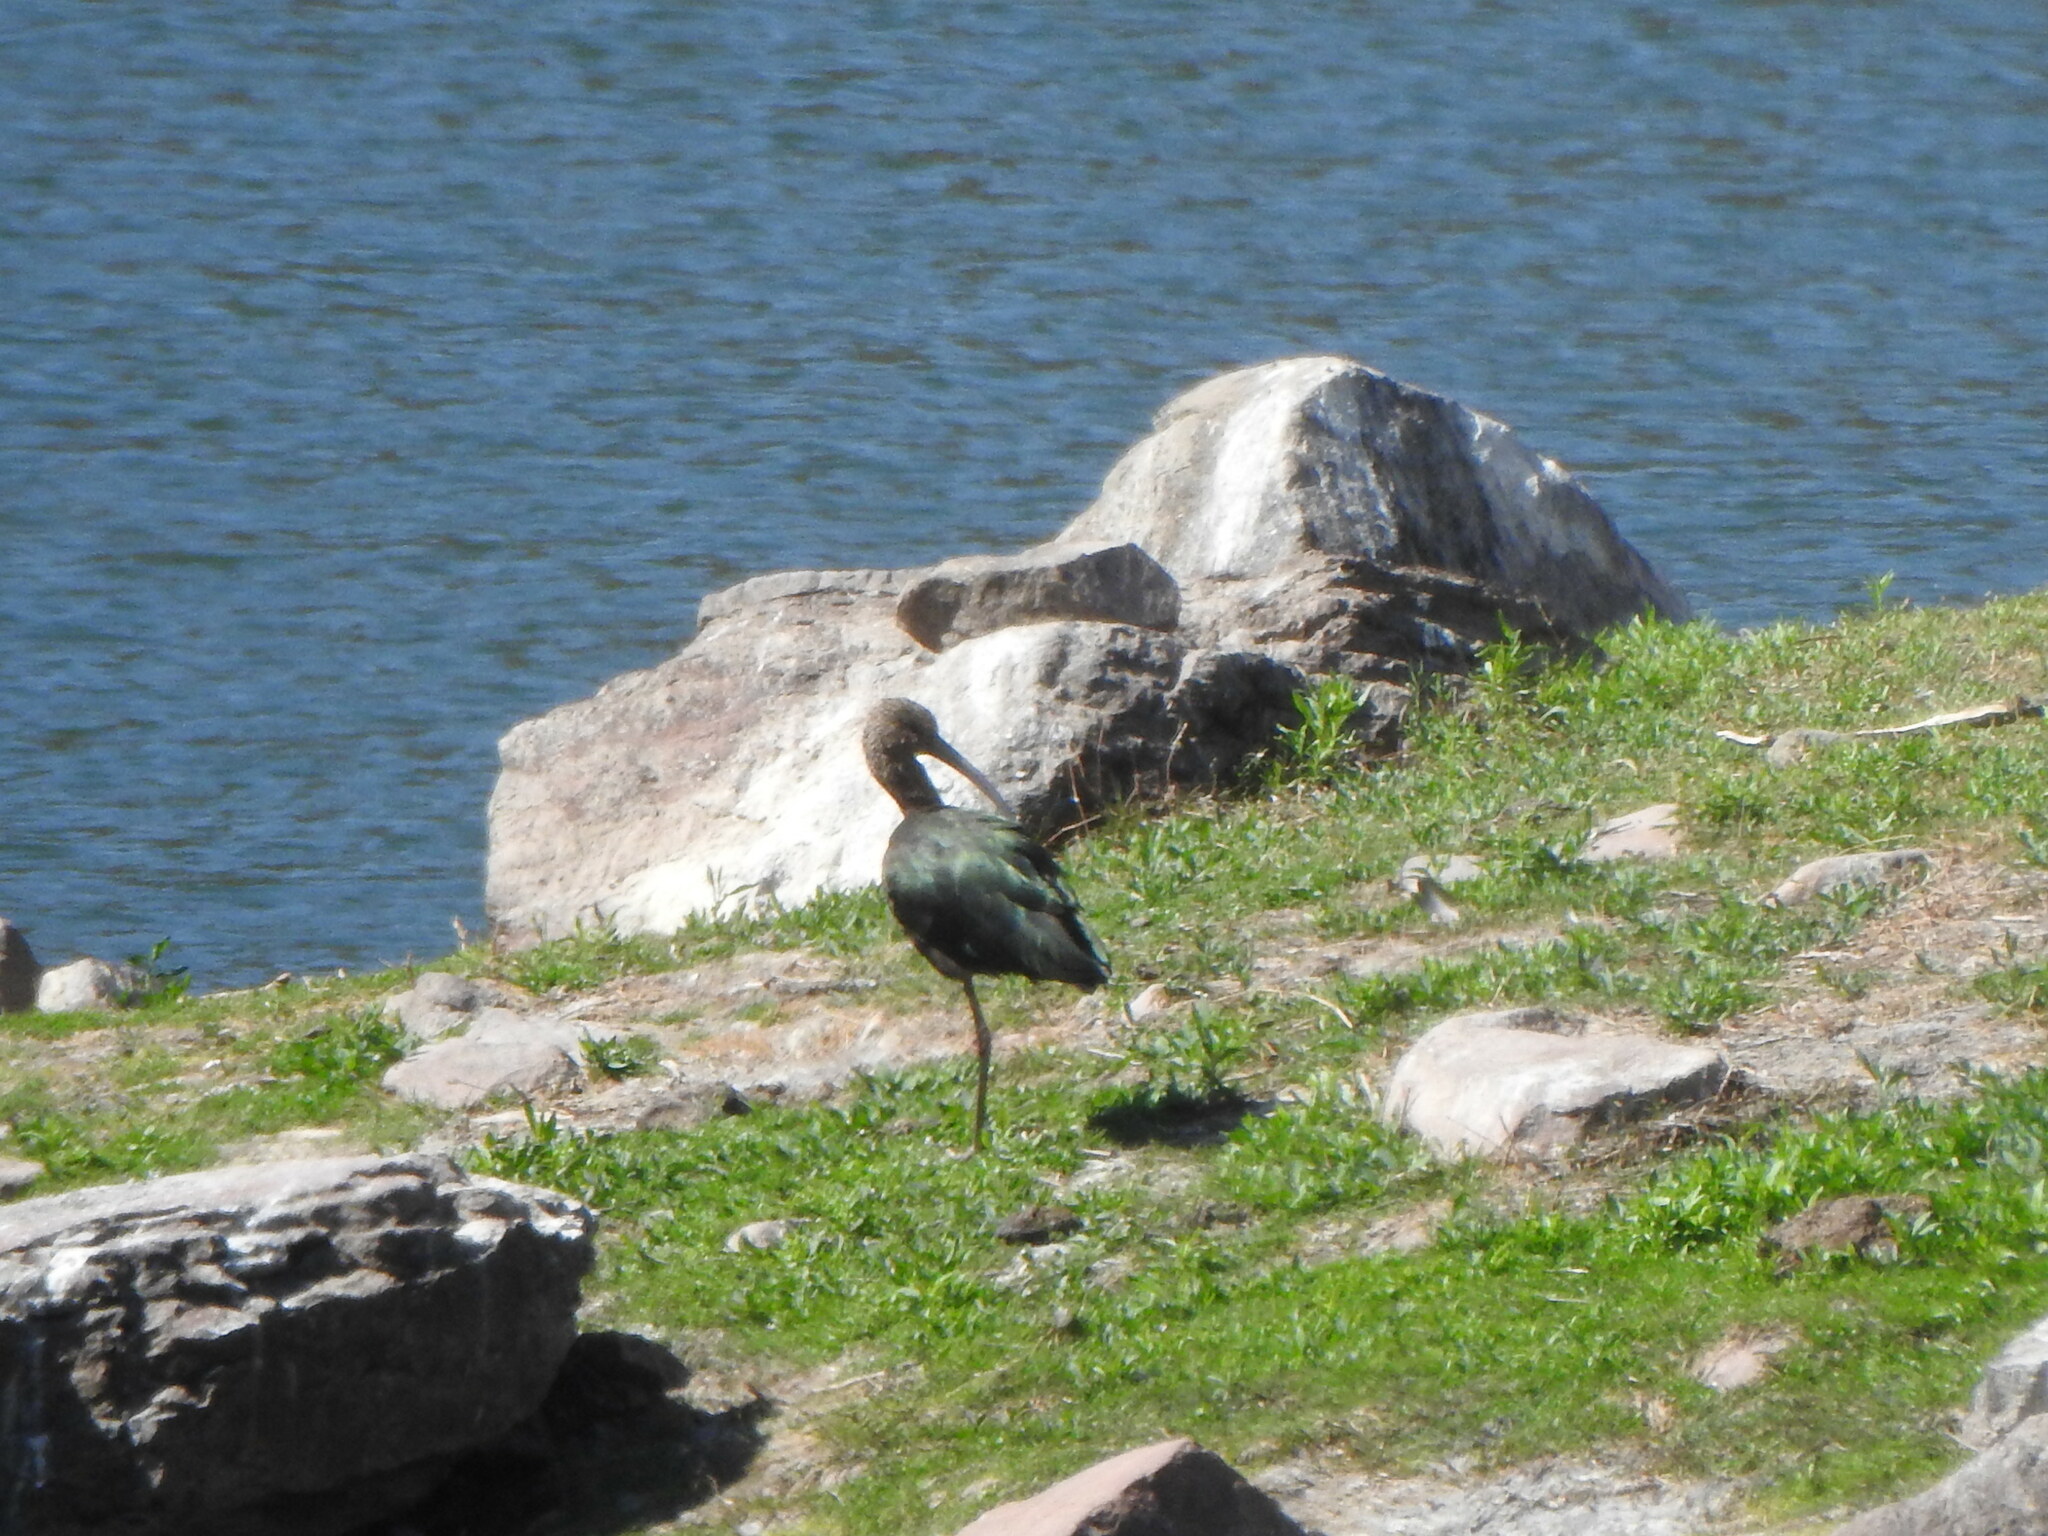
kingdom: Animalia
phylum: Chordata
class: Aves
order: Pelecaniformes
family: Threskiornithidae
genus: Plegadis
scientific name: Plegadis chihi
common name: White-faced ibis
